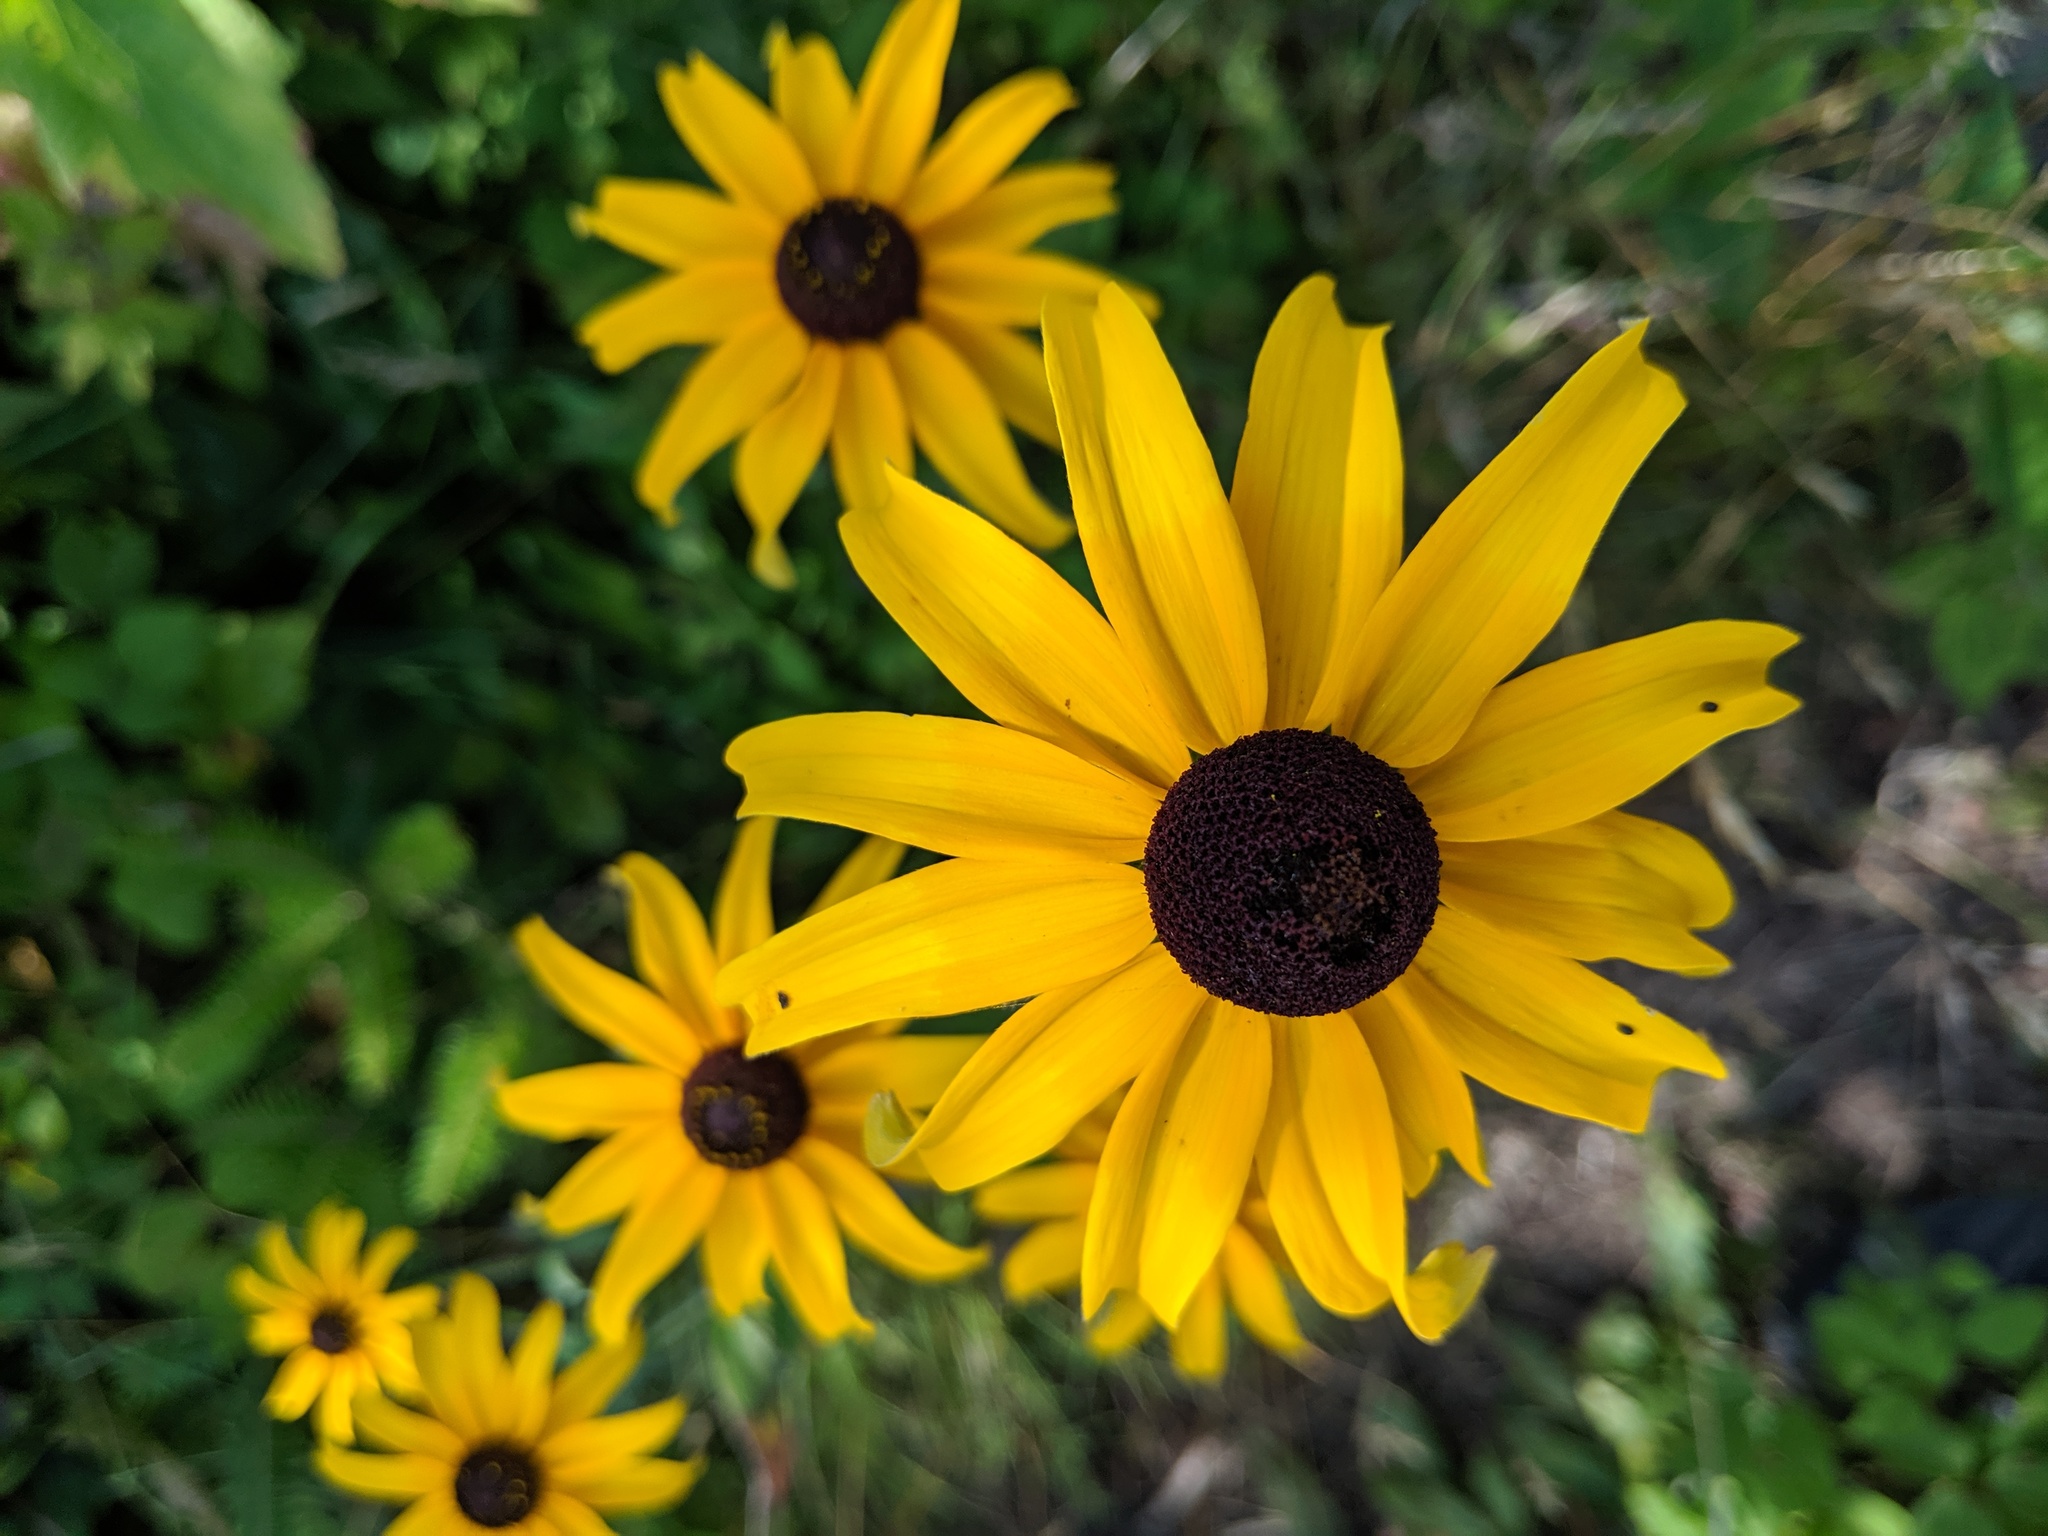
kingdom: Plantae
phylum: Tracheophyta
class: Magnoliopsida
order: Asterales
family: Asteraceae
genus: Rudbeckia
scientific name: Rudbeckia hirta
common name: Black-eyed-susan
